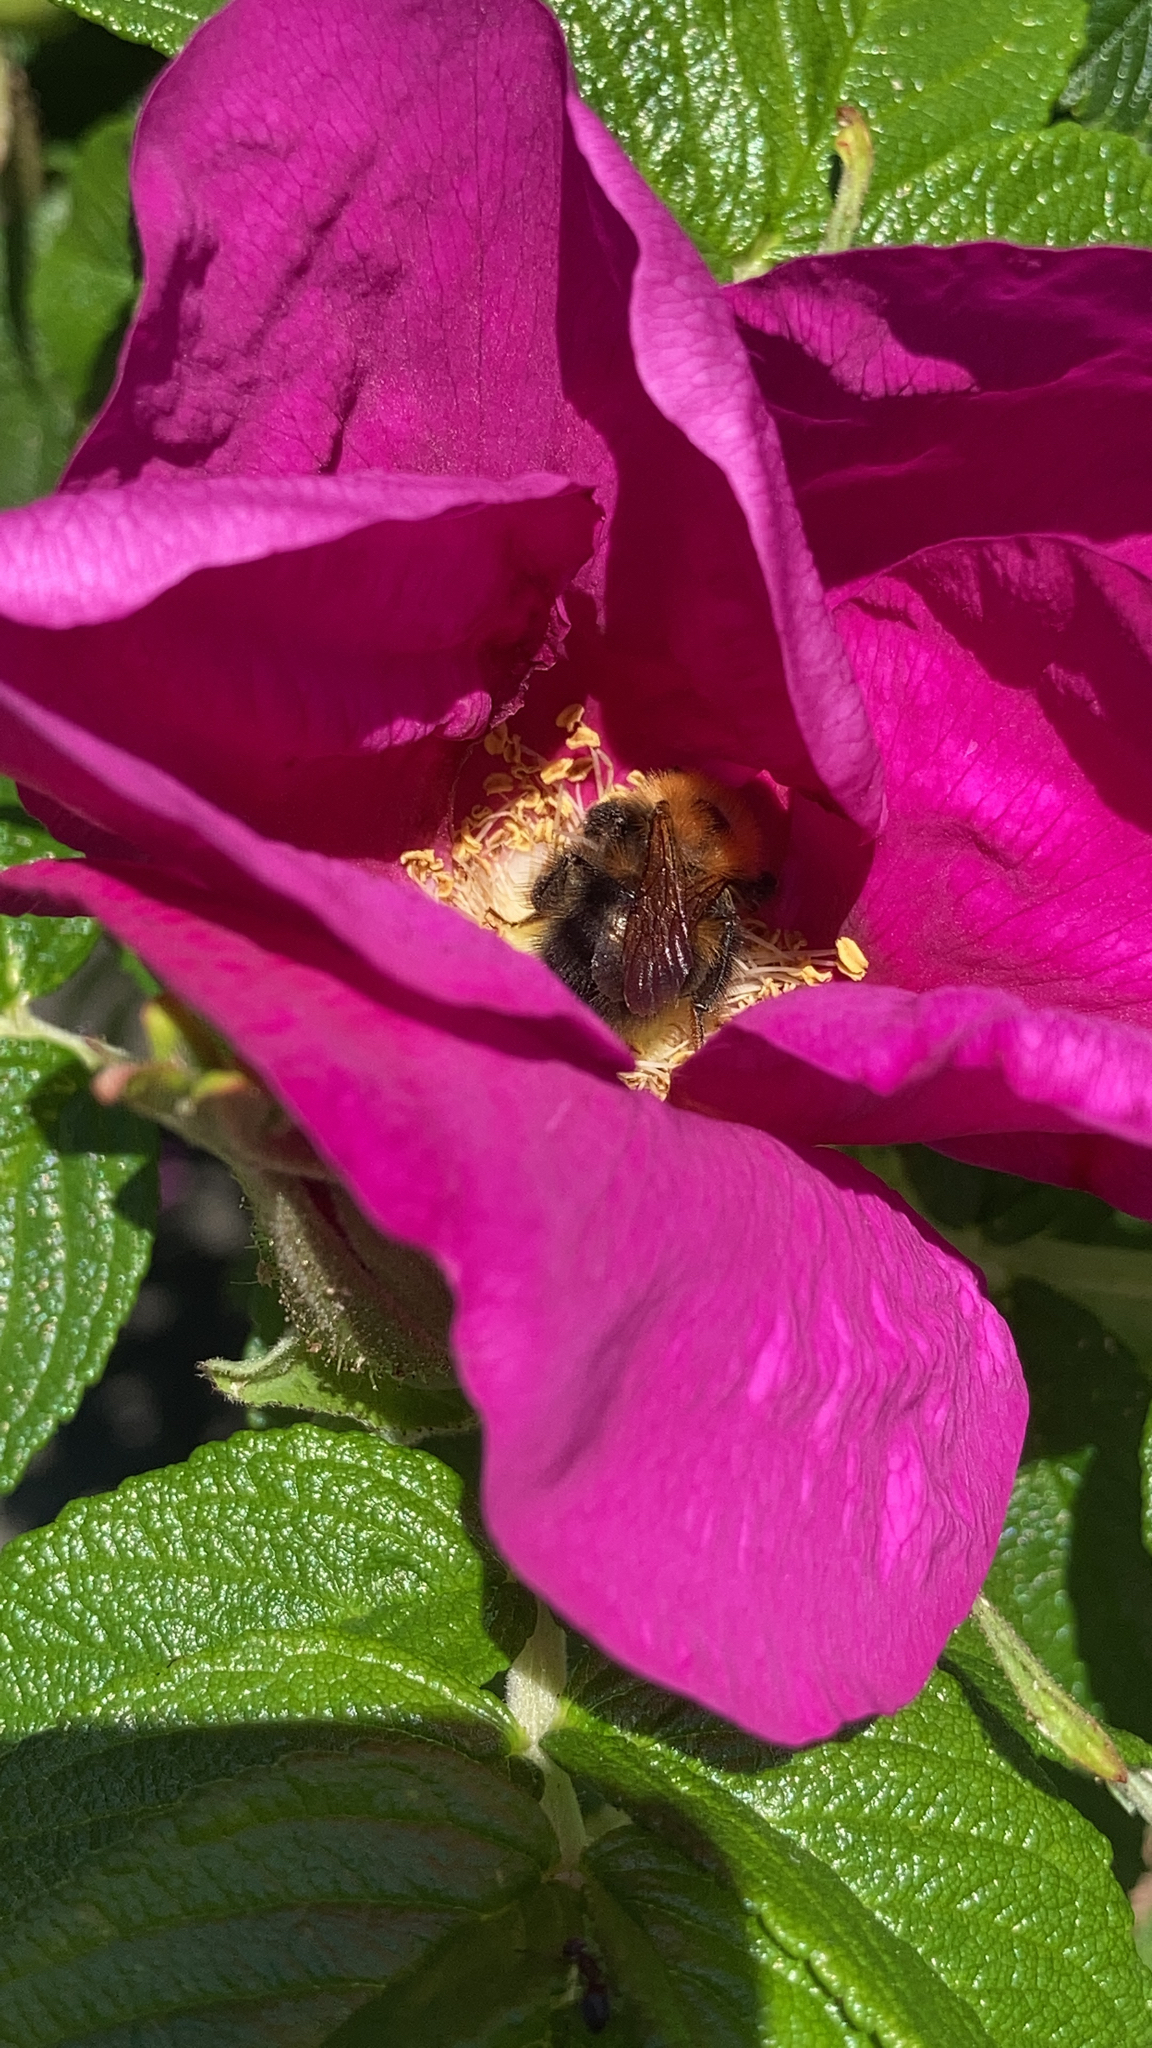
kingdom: Animalia
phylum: Arthropoda
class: Insecta
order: Hymenoptera
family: Apidae
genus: Bombus
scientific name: Bombus hypnorum
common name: New garden bumblebee
